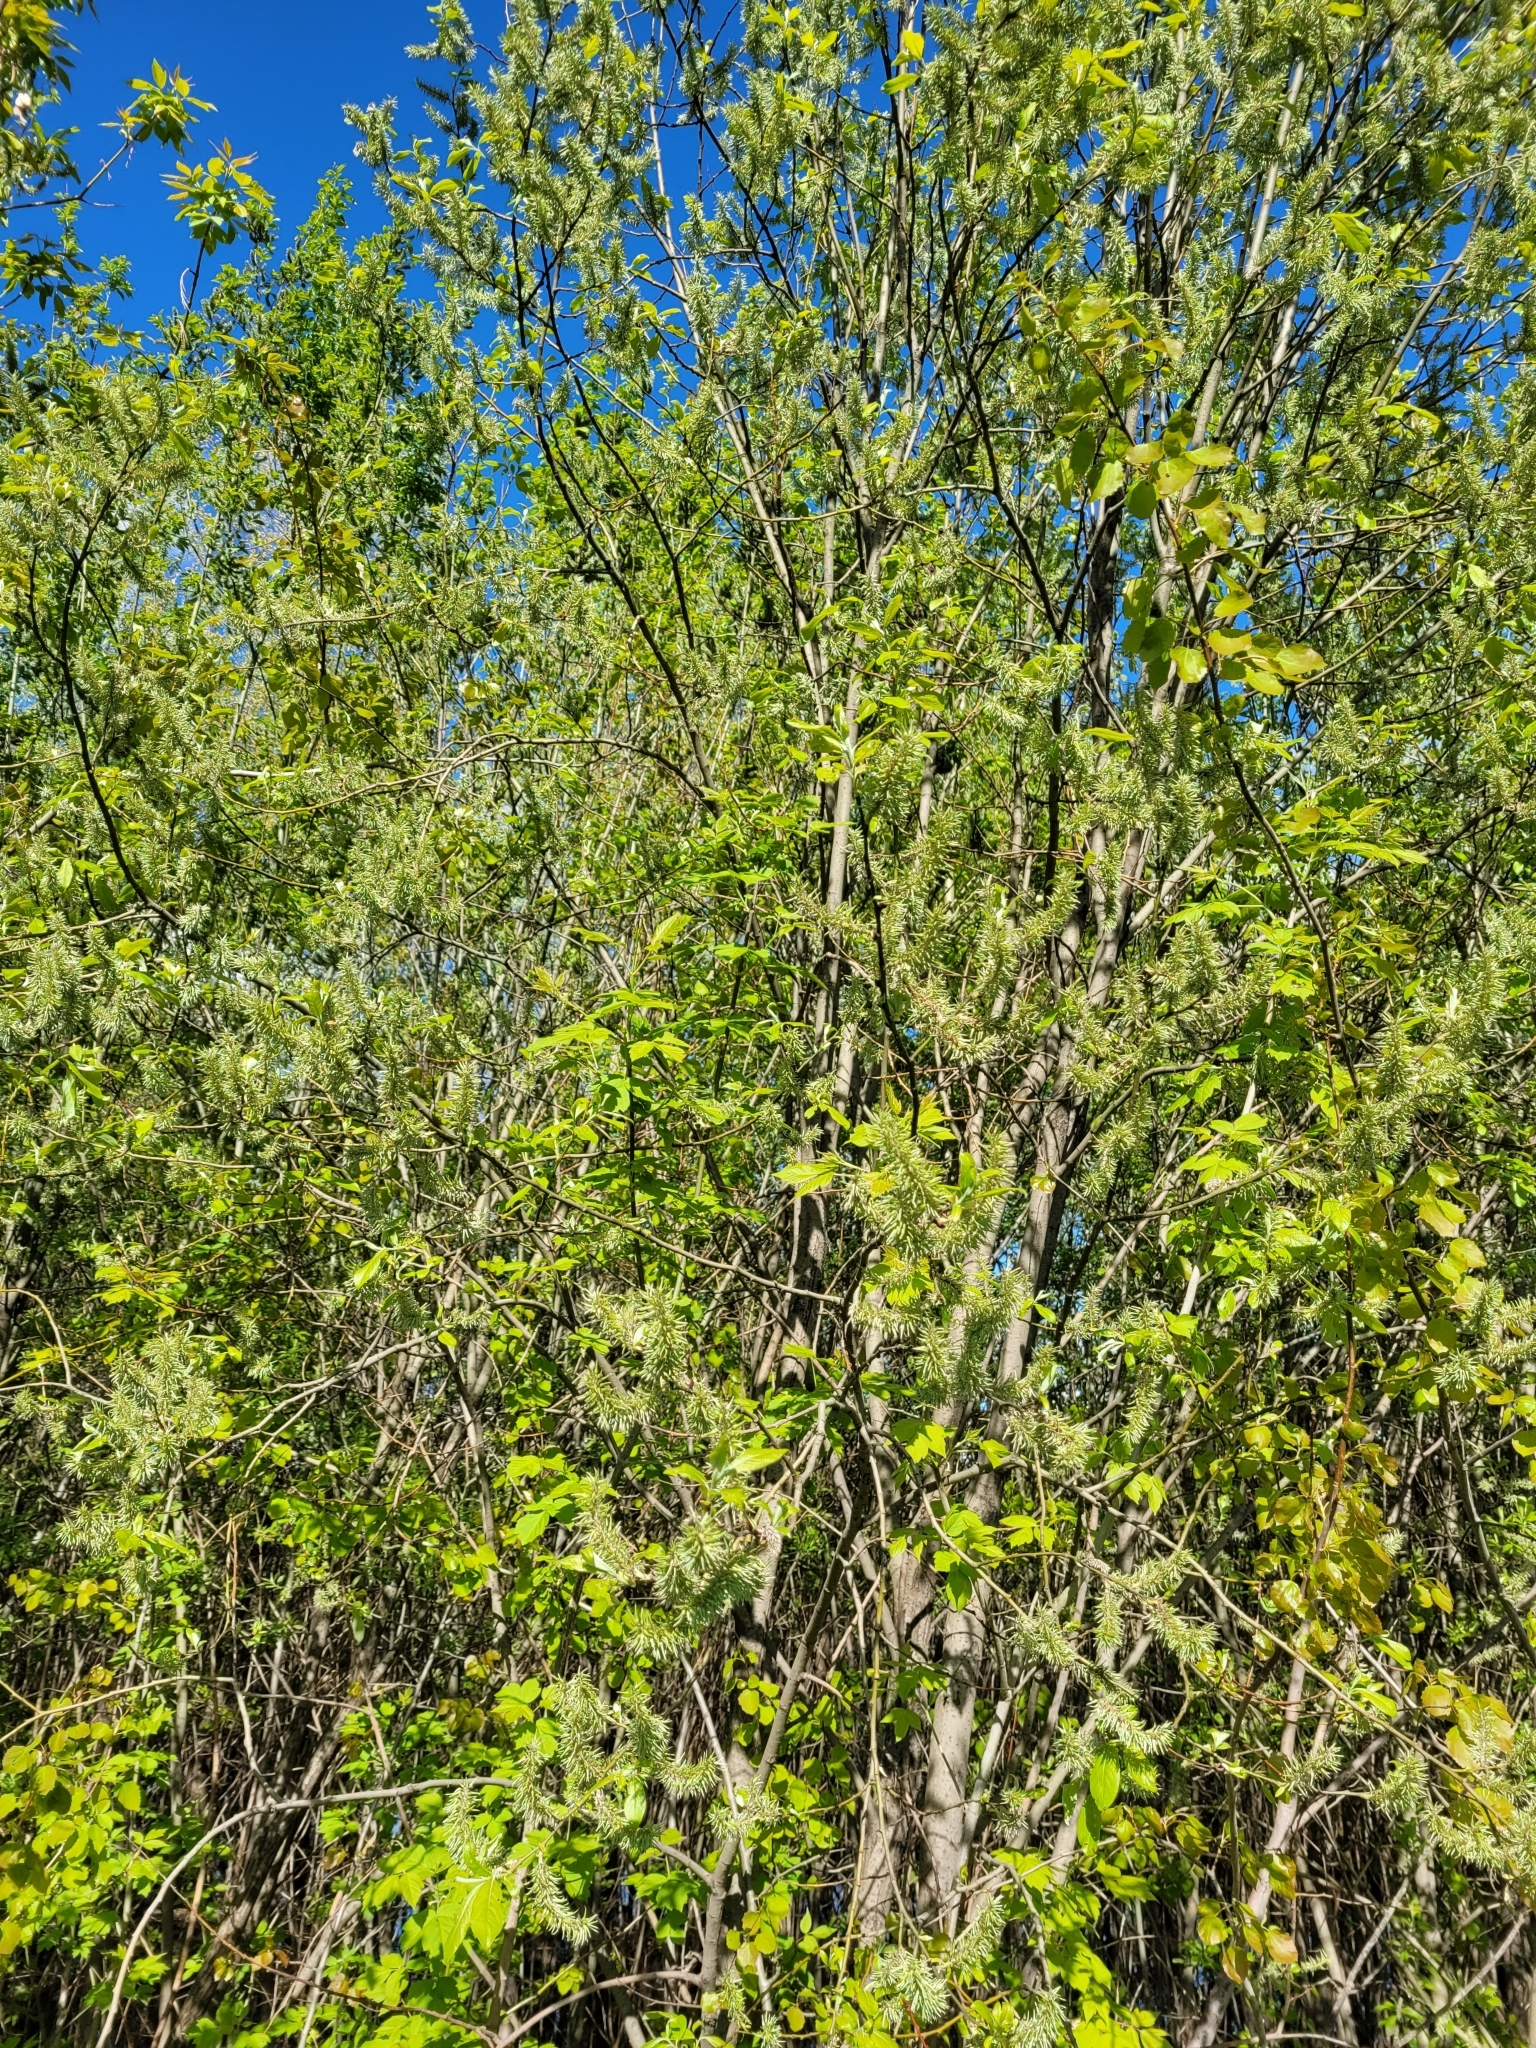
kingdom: Plantae
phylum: Tracheophyta
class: Magnoliopsida
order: Malpighiales
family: Salicaceae
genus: Salix
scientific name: Salix caprea
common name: Goat willow
